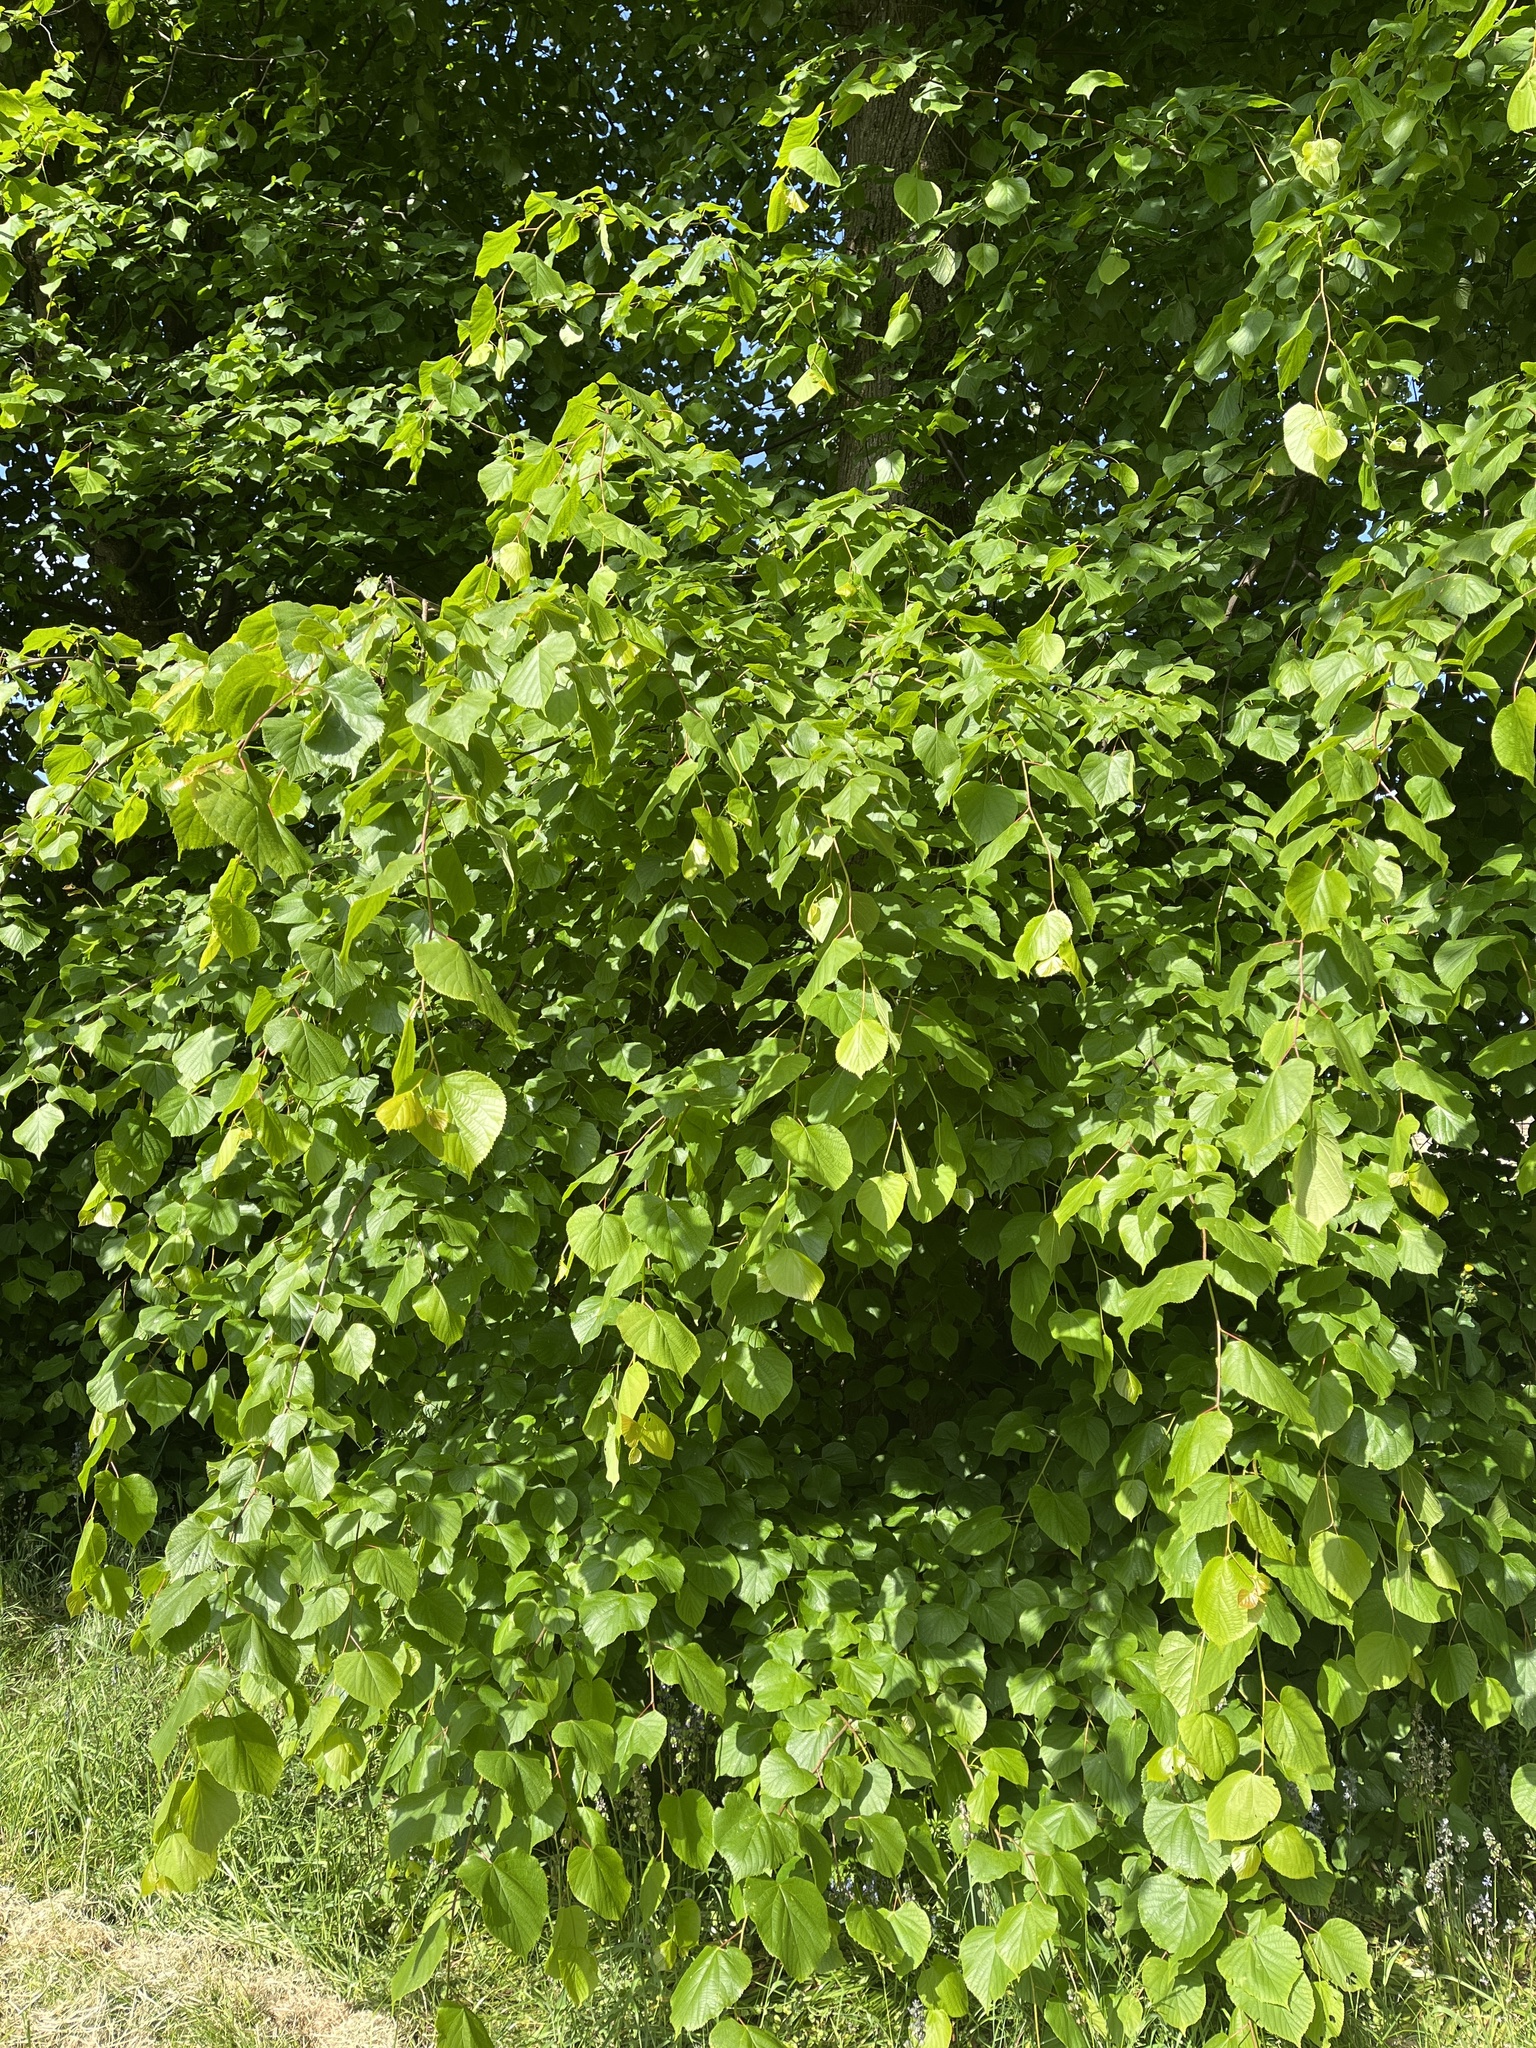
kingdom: Plantae
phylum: Tracheophyta
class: Magnoliopsida
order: Malvales
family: Malvaceae
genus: Tilia
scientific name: Tilia europaea
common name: European linden
